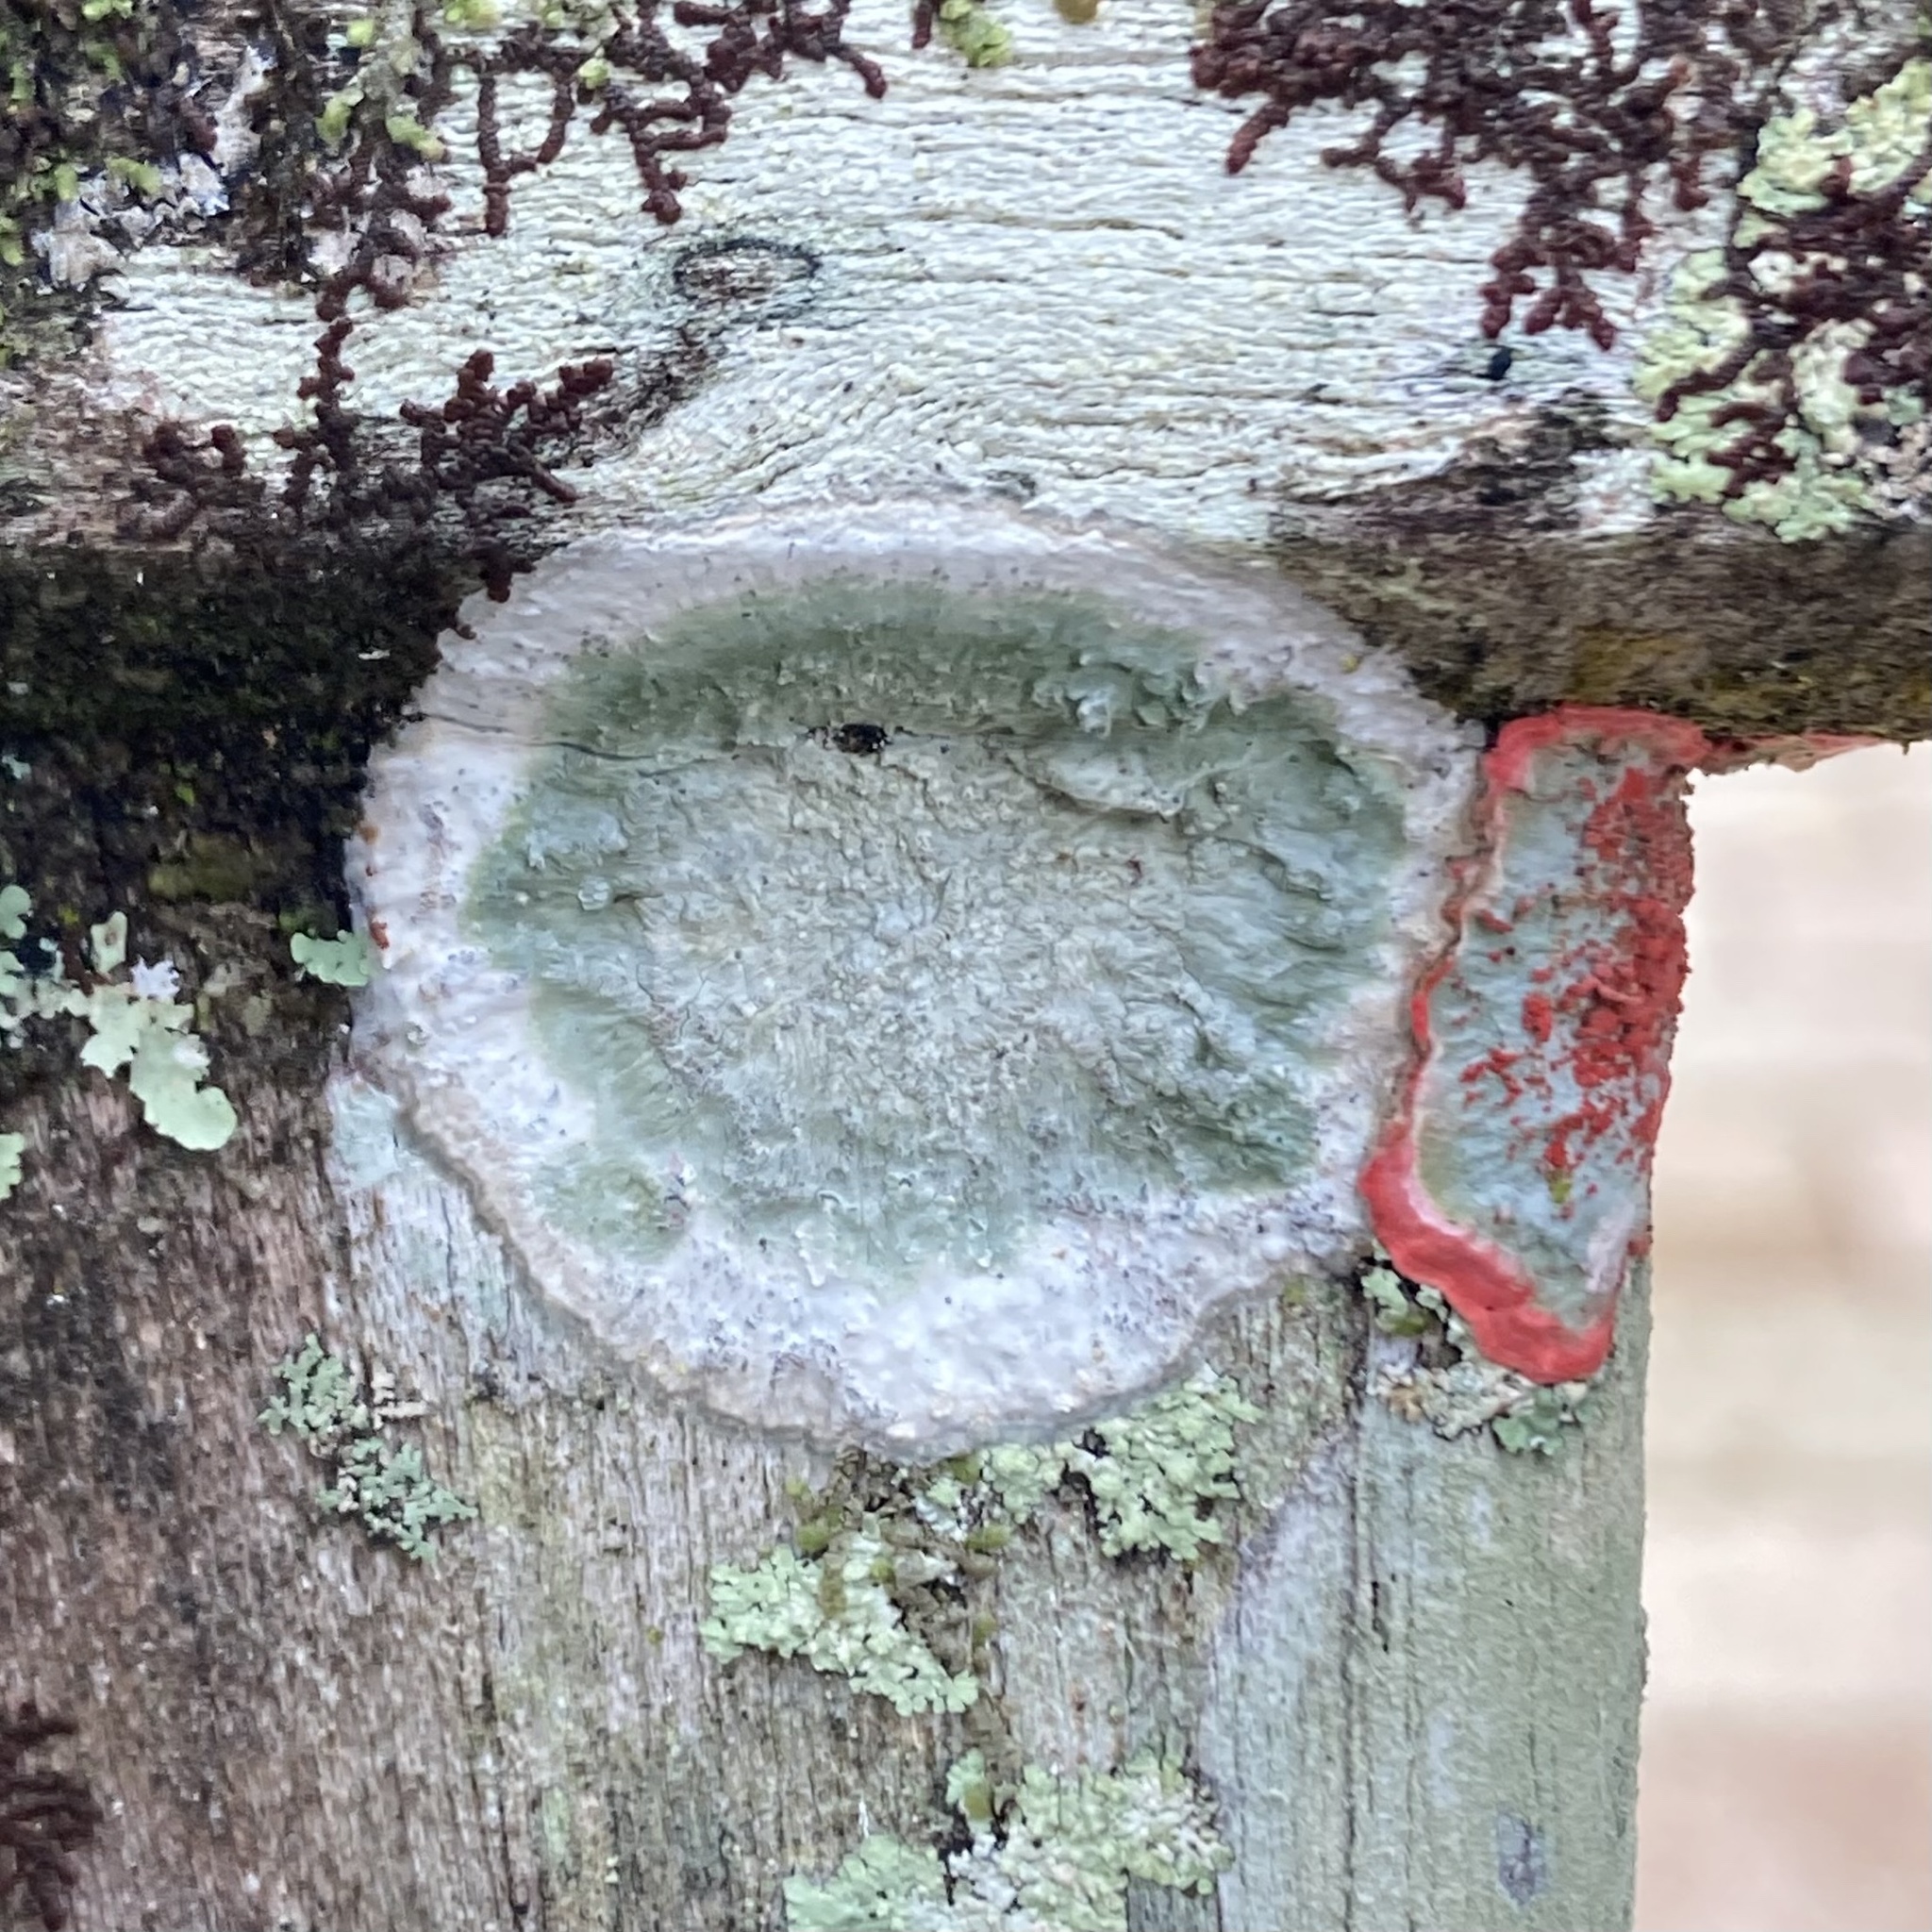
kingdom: Fungi
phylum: Ascomycota
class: Arthoniomycetes
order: Arthoniales
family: Arthoniaceae
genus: Cryptothecia
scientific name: Cryptothecia striata
